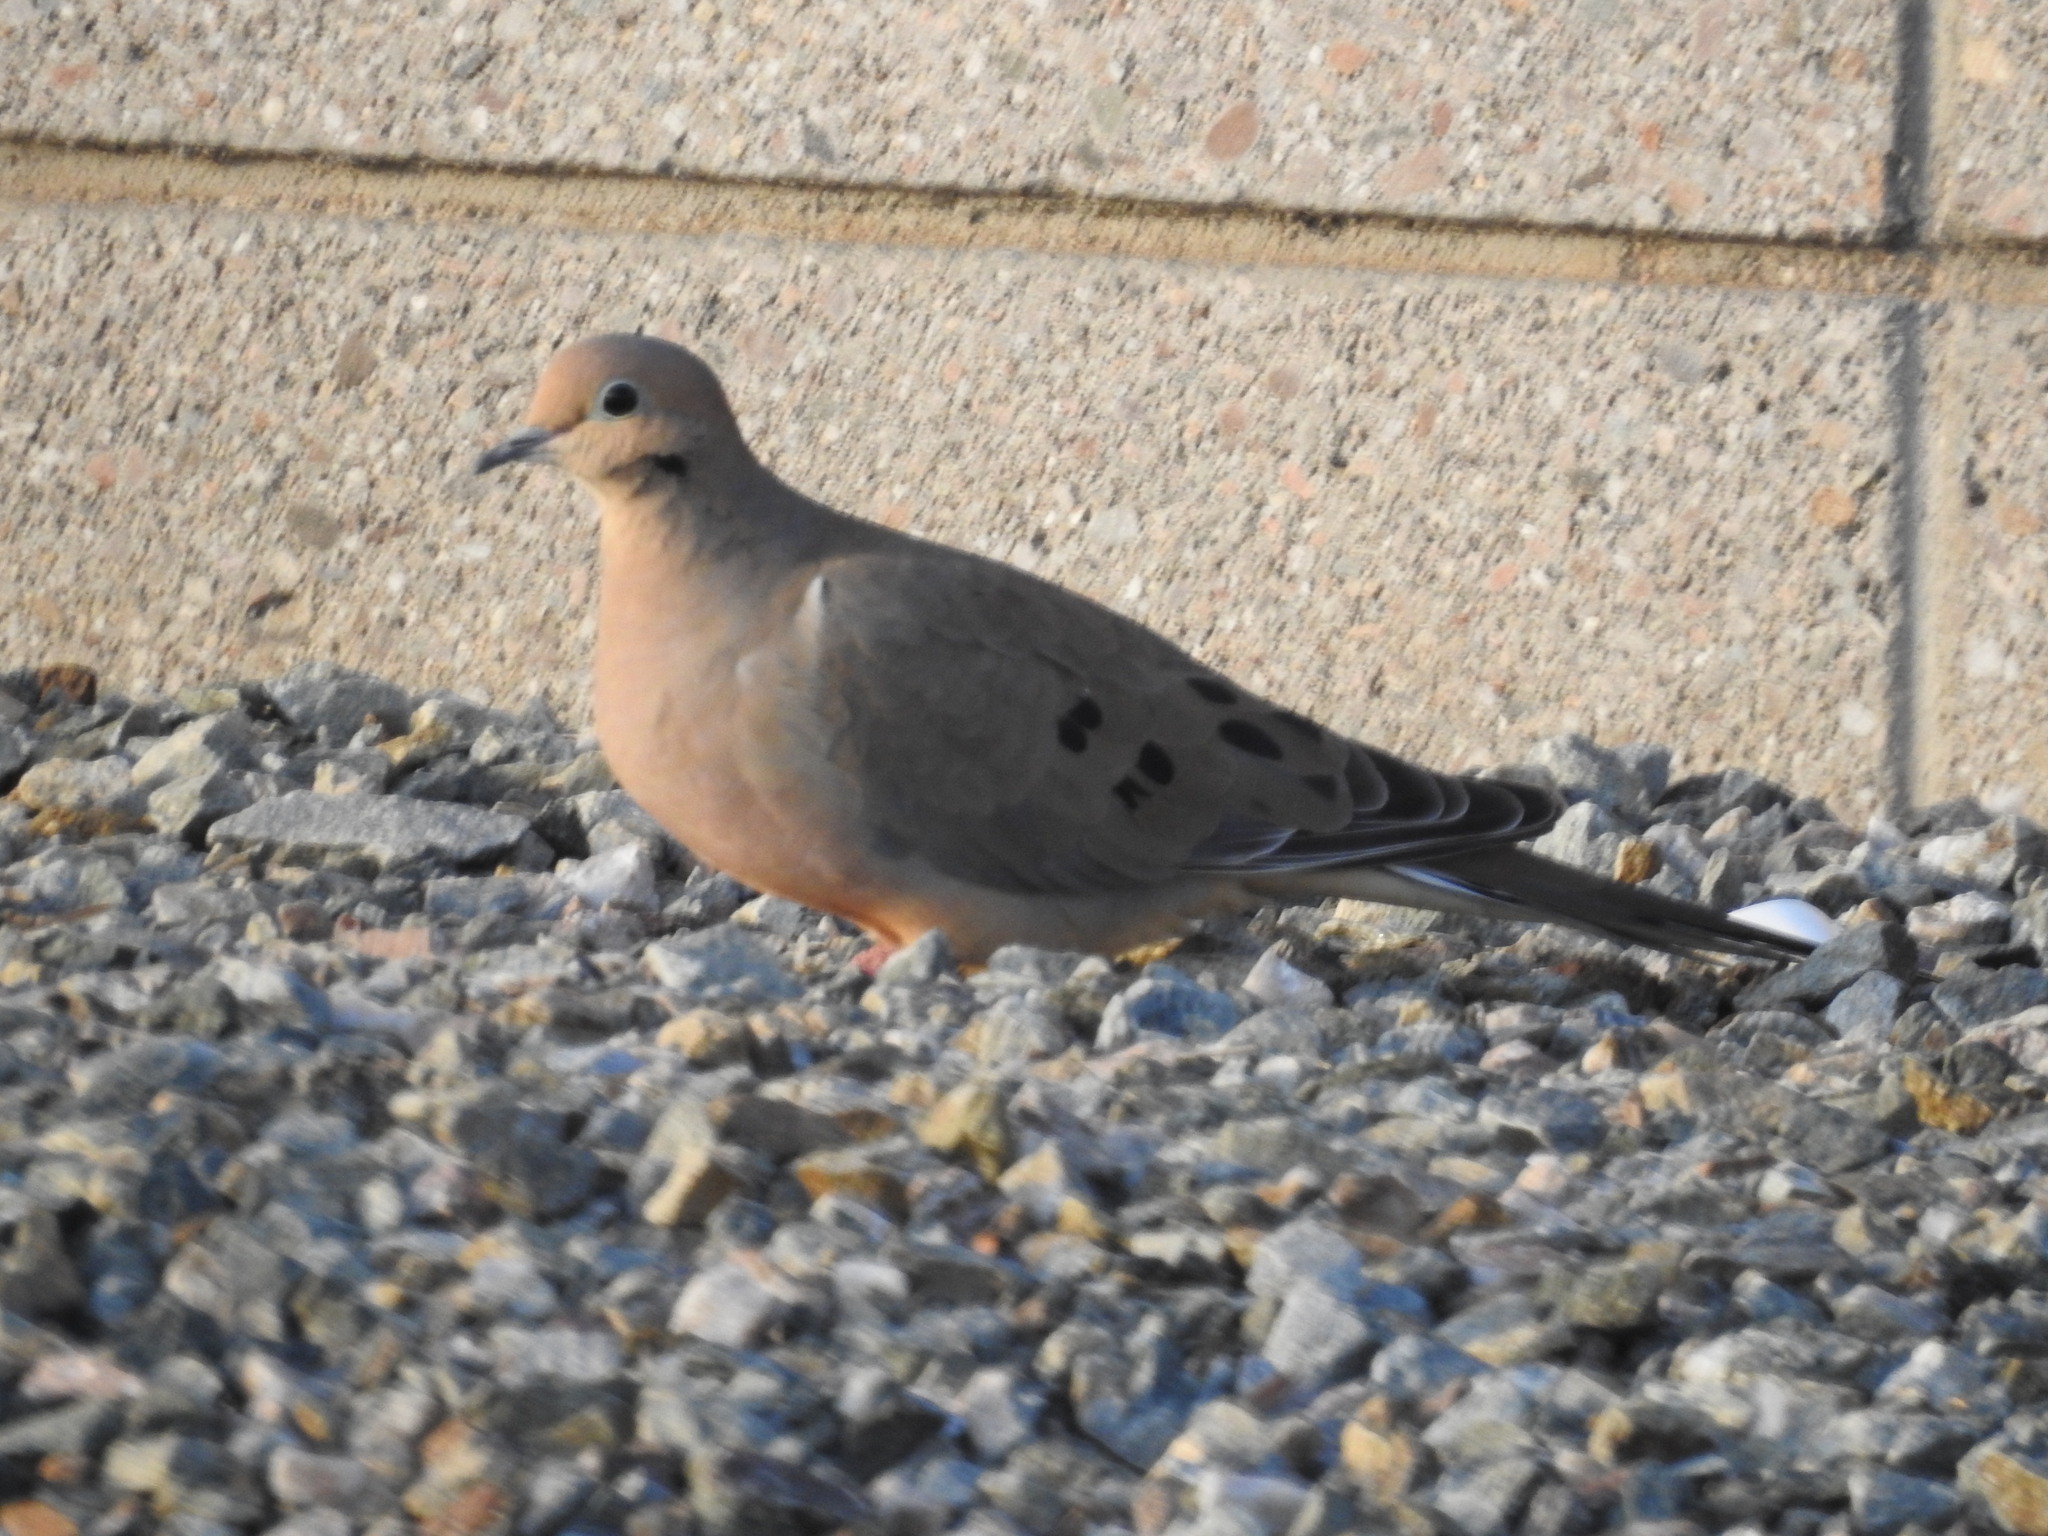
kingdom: Animalia
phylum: Chordata
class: Aves
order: Columbiformes
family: Columbidae
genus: Zenaida
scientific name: Zenaida macroura
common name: Mourning dove
